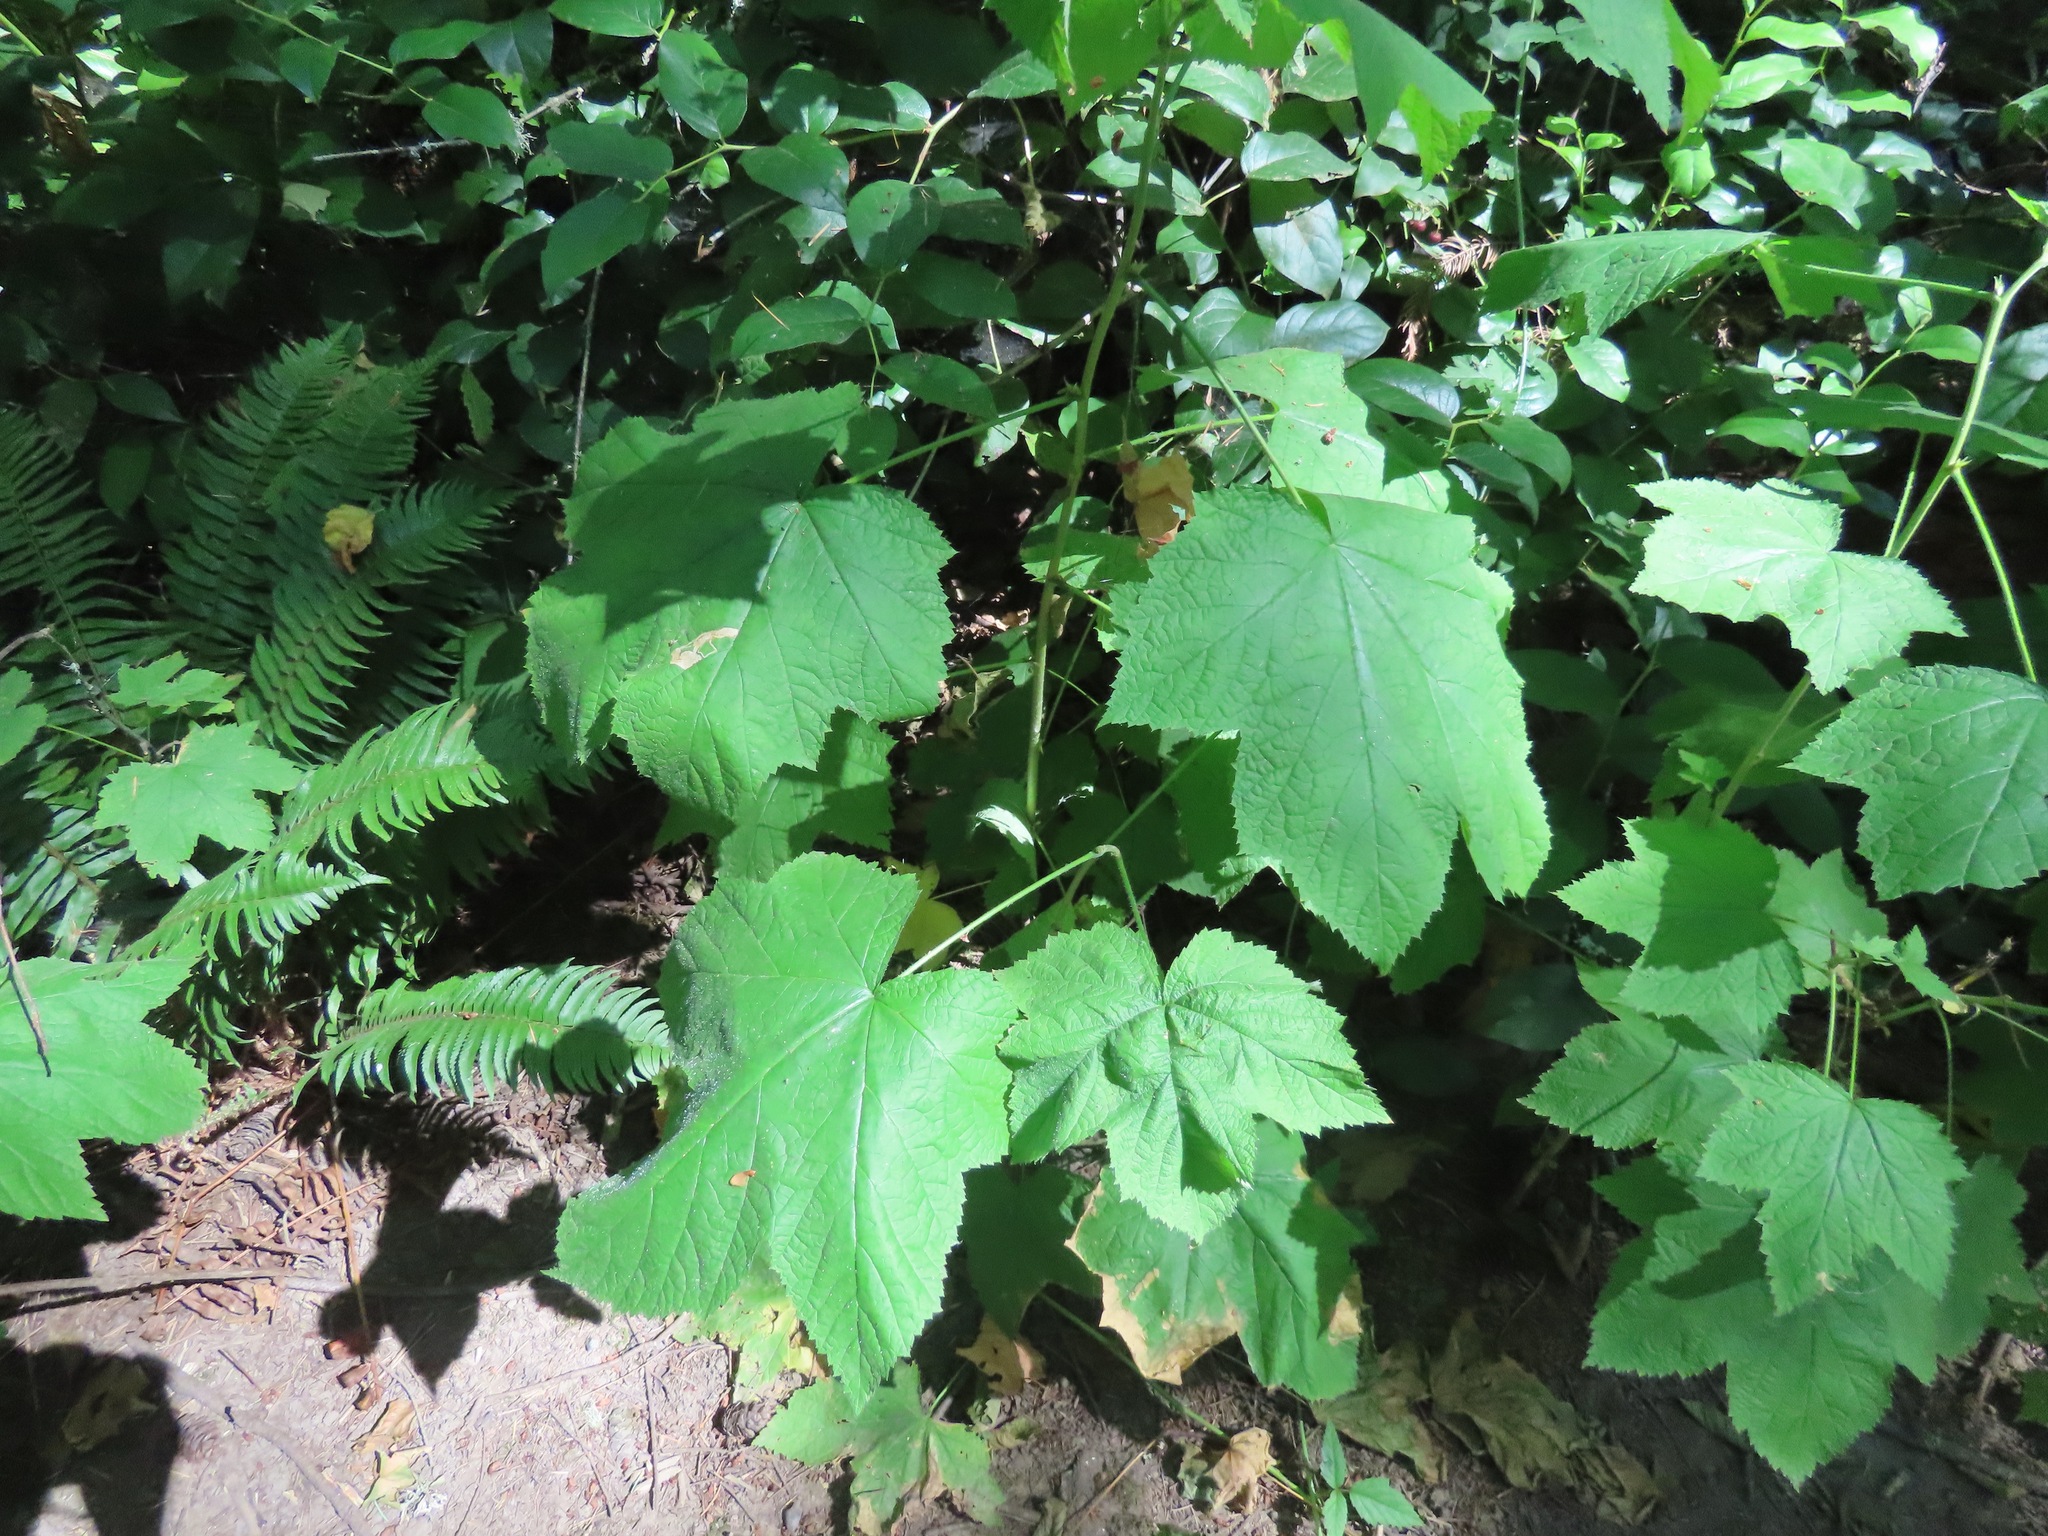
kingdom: Plantae
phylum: Tracheophyta
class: Magnoliopsida
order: Rosales
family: Rosaceae
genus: Rubus
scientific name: Rubus parviflorus
